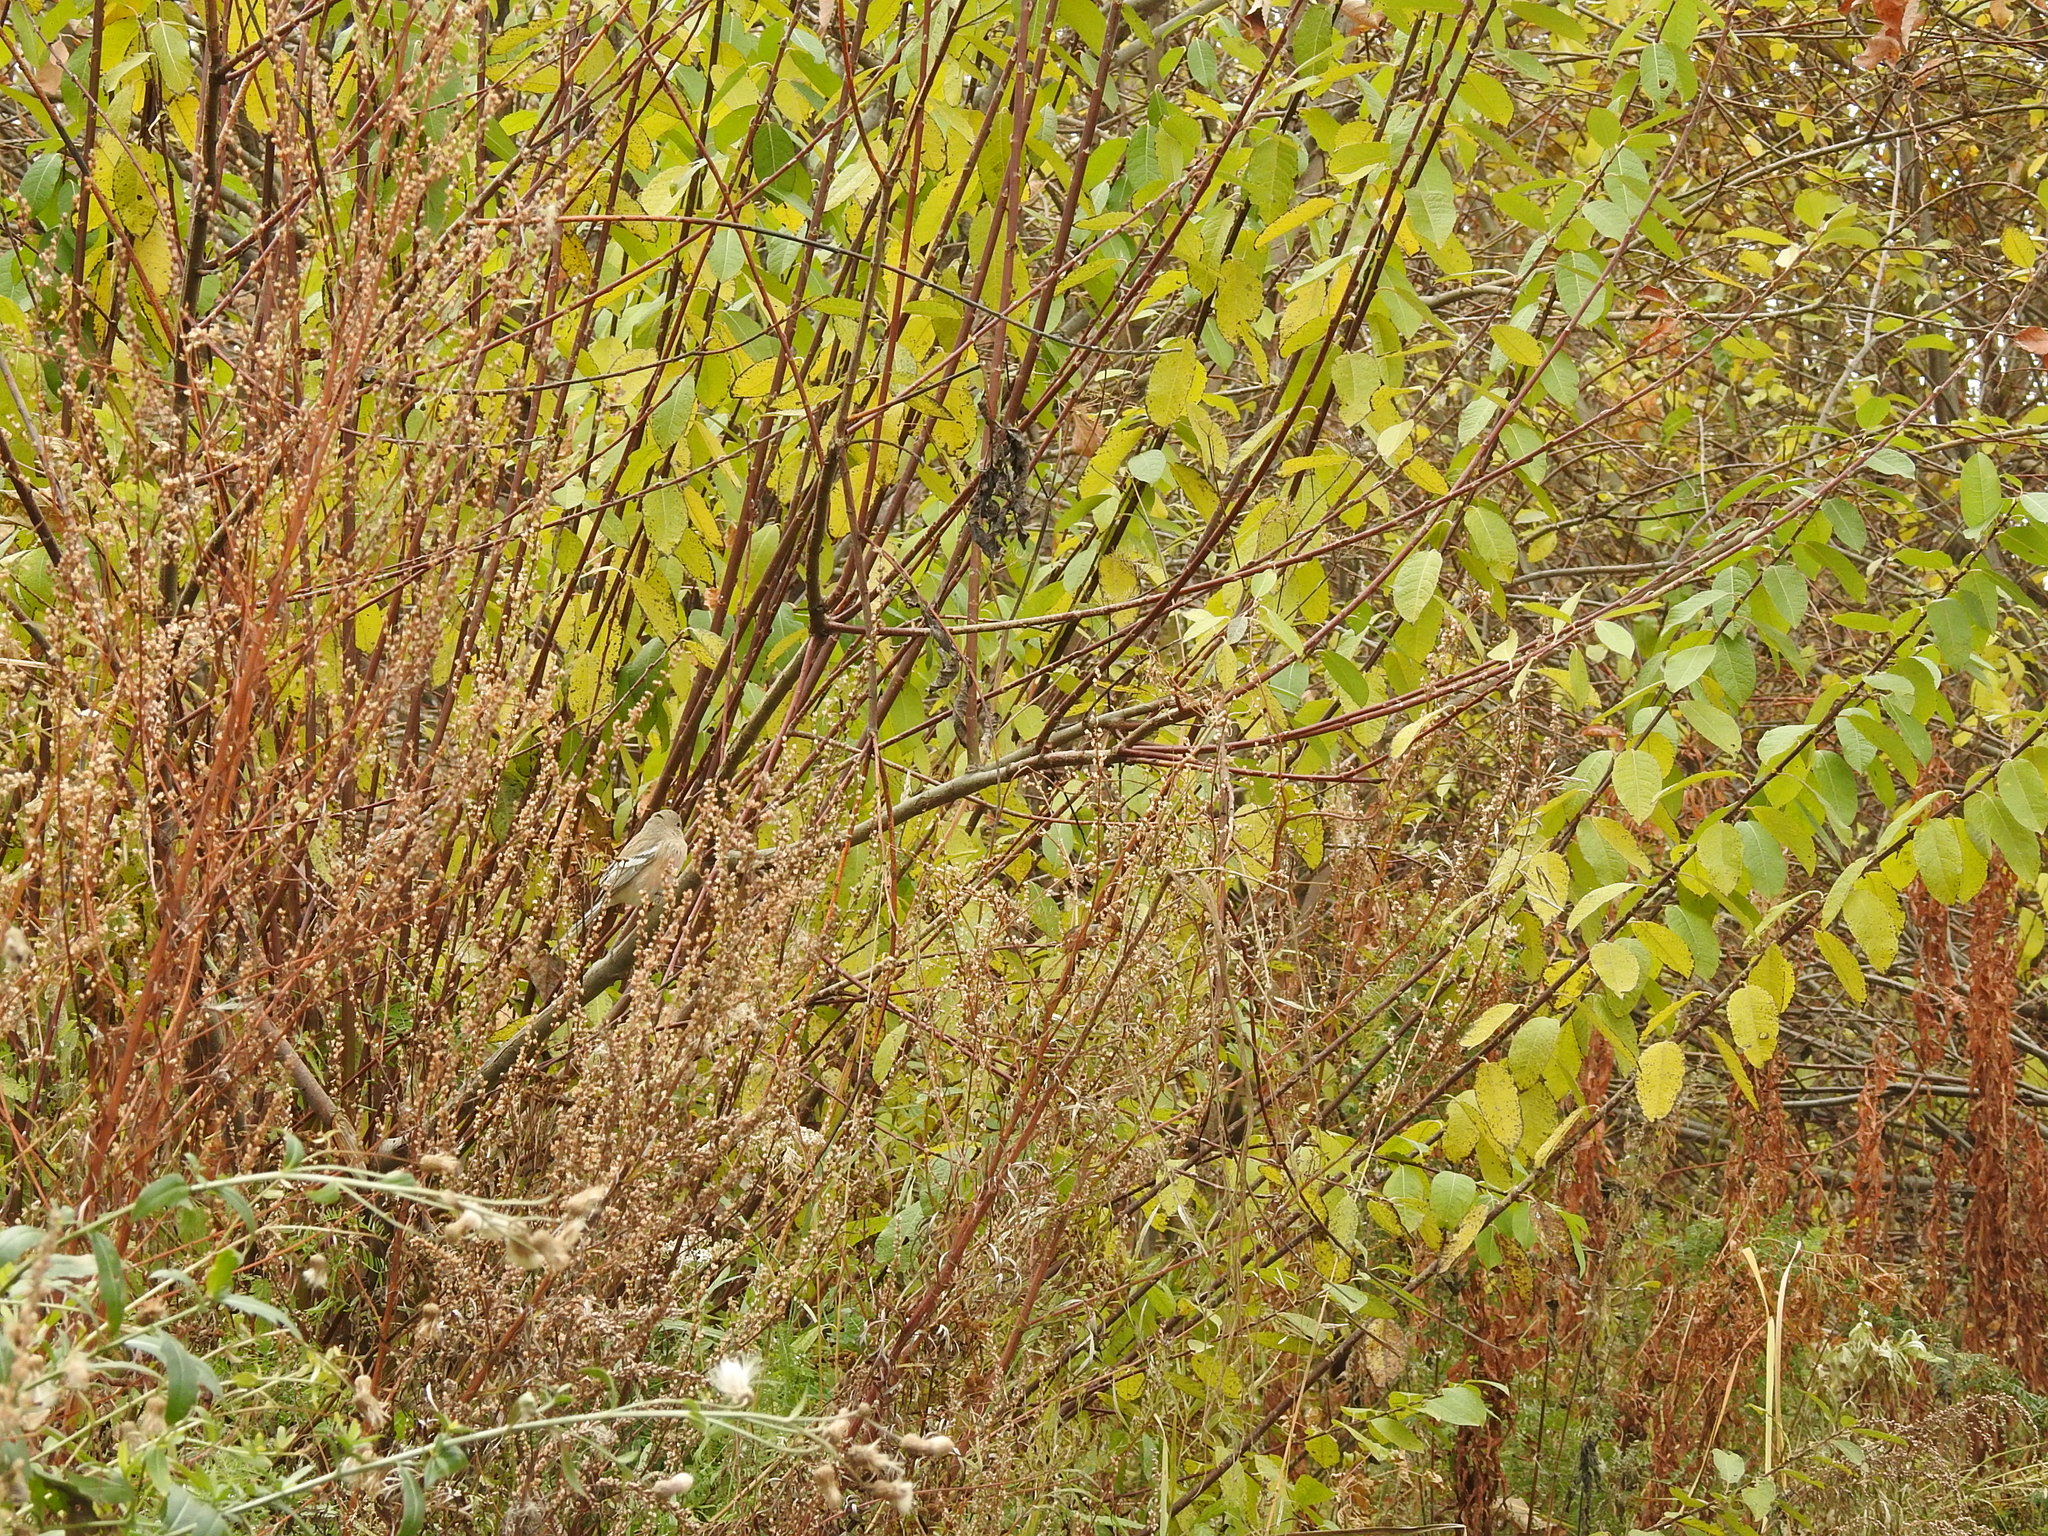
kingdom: Animalia
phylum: Chordata
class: Aves
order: Passeriformes
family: Fringillidae
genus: Carpodacus
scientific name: Carpodacus sibiricus
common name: Long-tailed rosefinch
